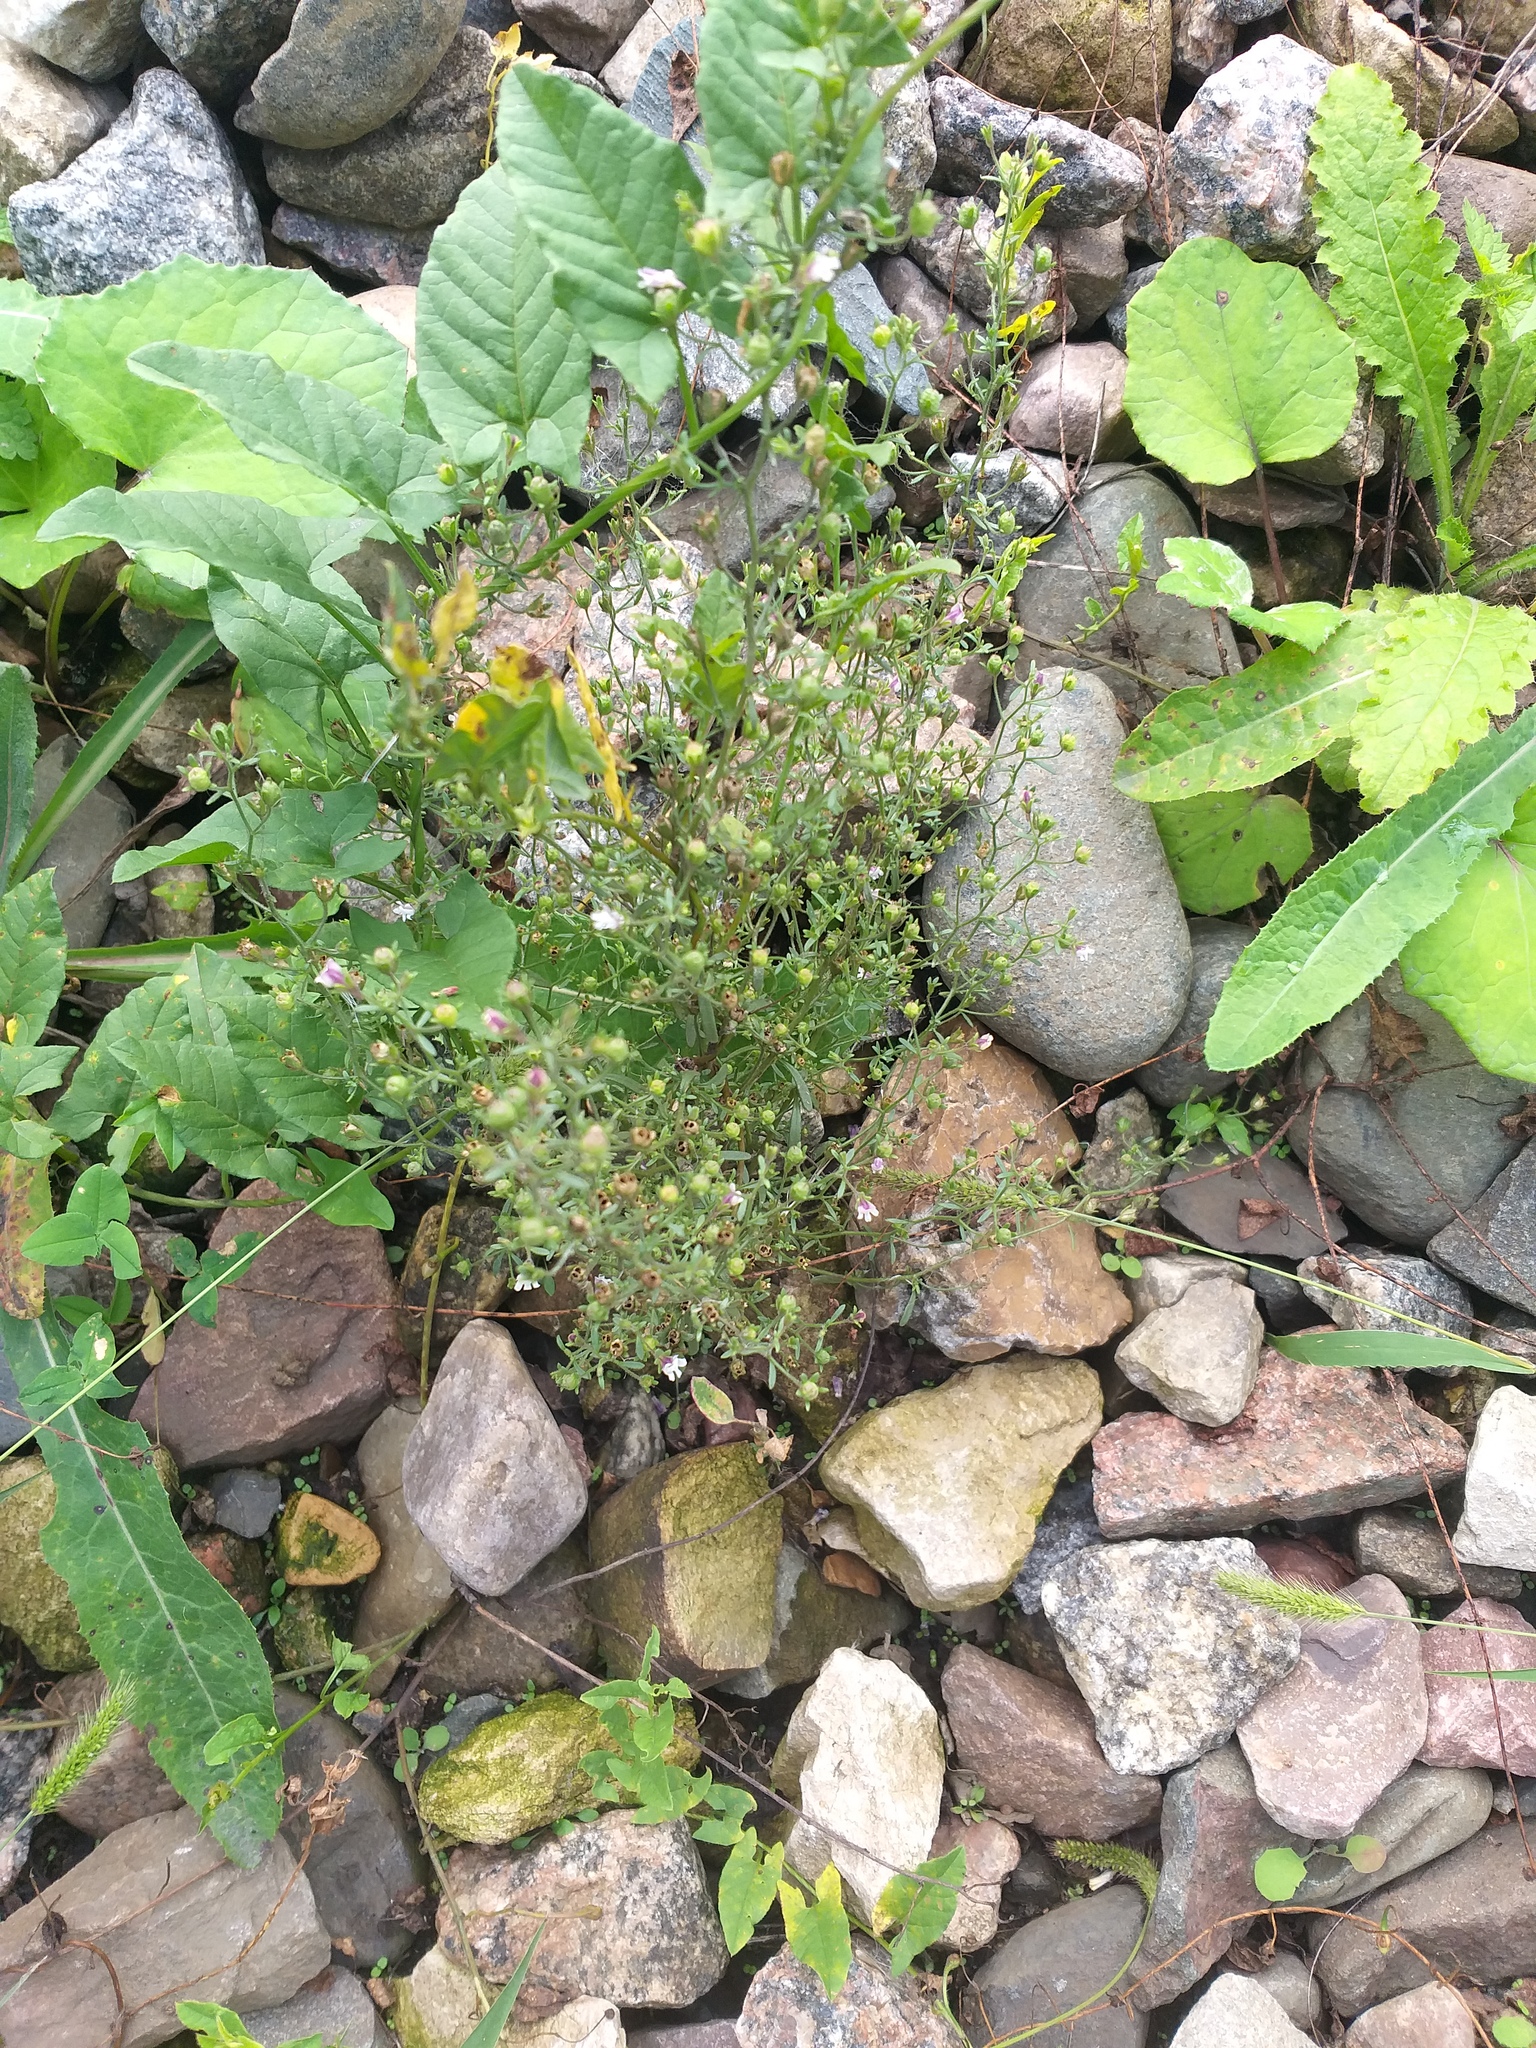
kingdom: Plantae
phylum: Tracheophyta
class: Magnoliopsida
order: Lamiales
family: Plantaginaceae
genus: Chaenorhinum
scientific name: Chaenorhinum minus
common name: Dwarf snapdragon
